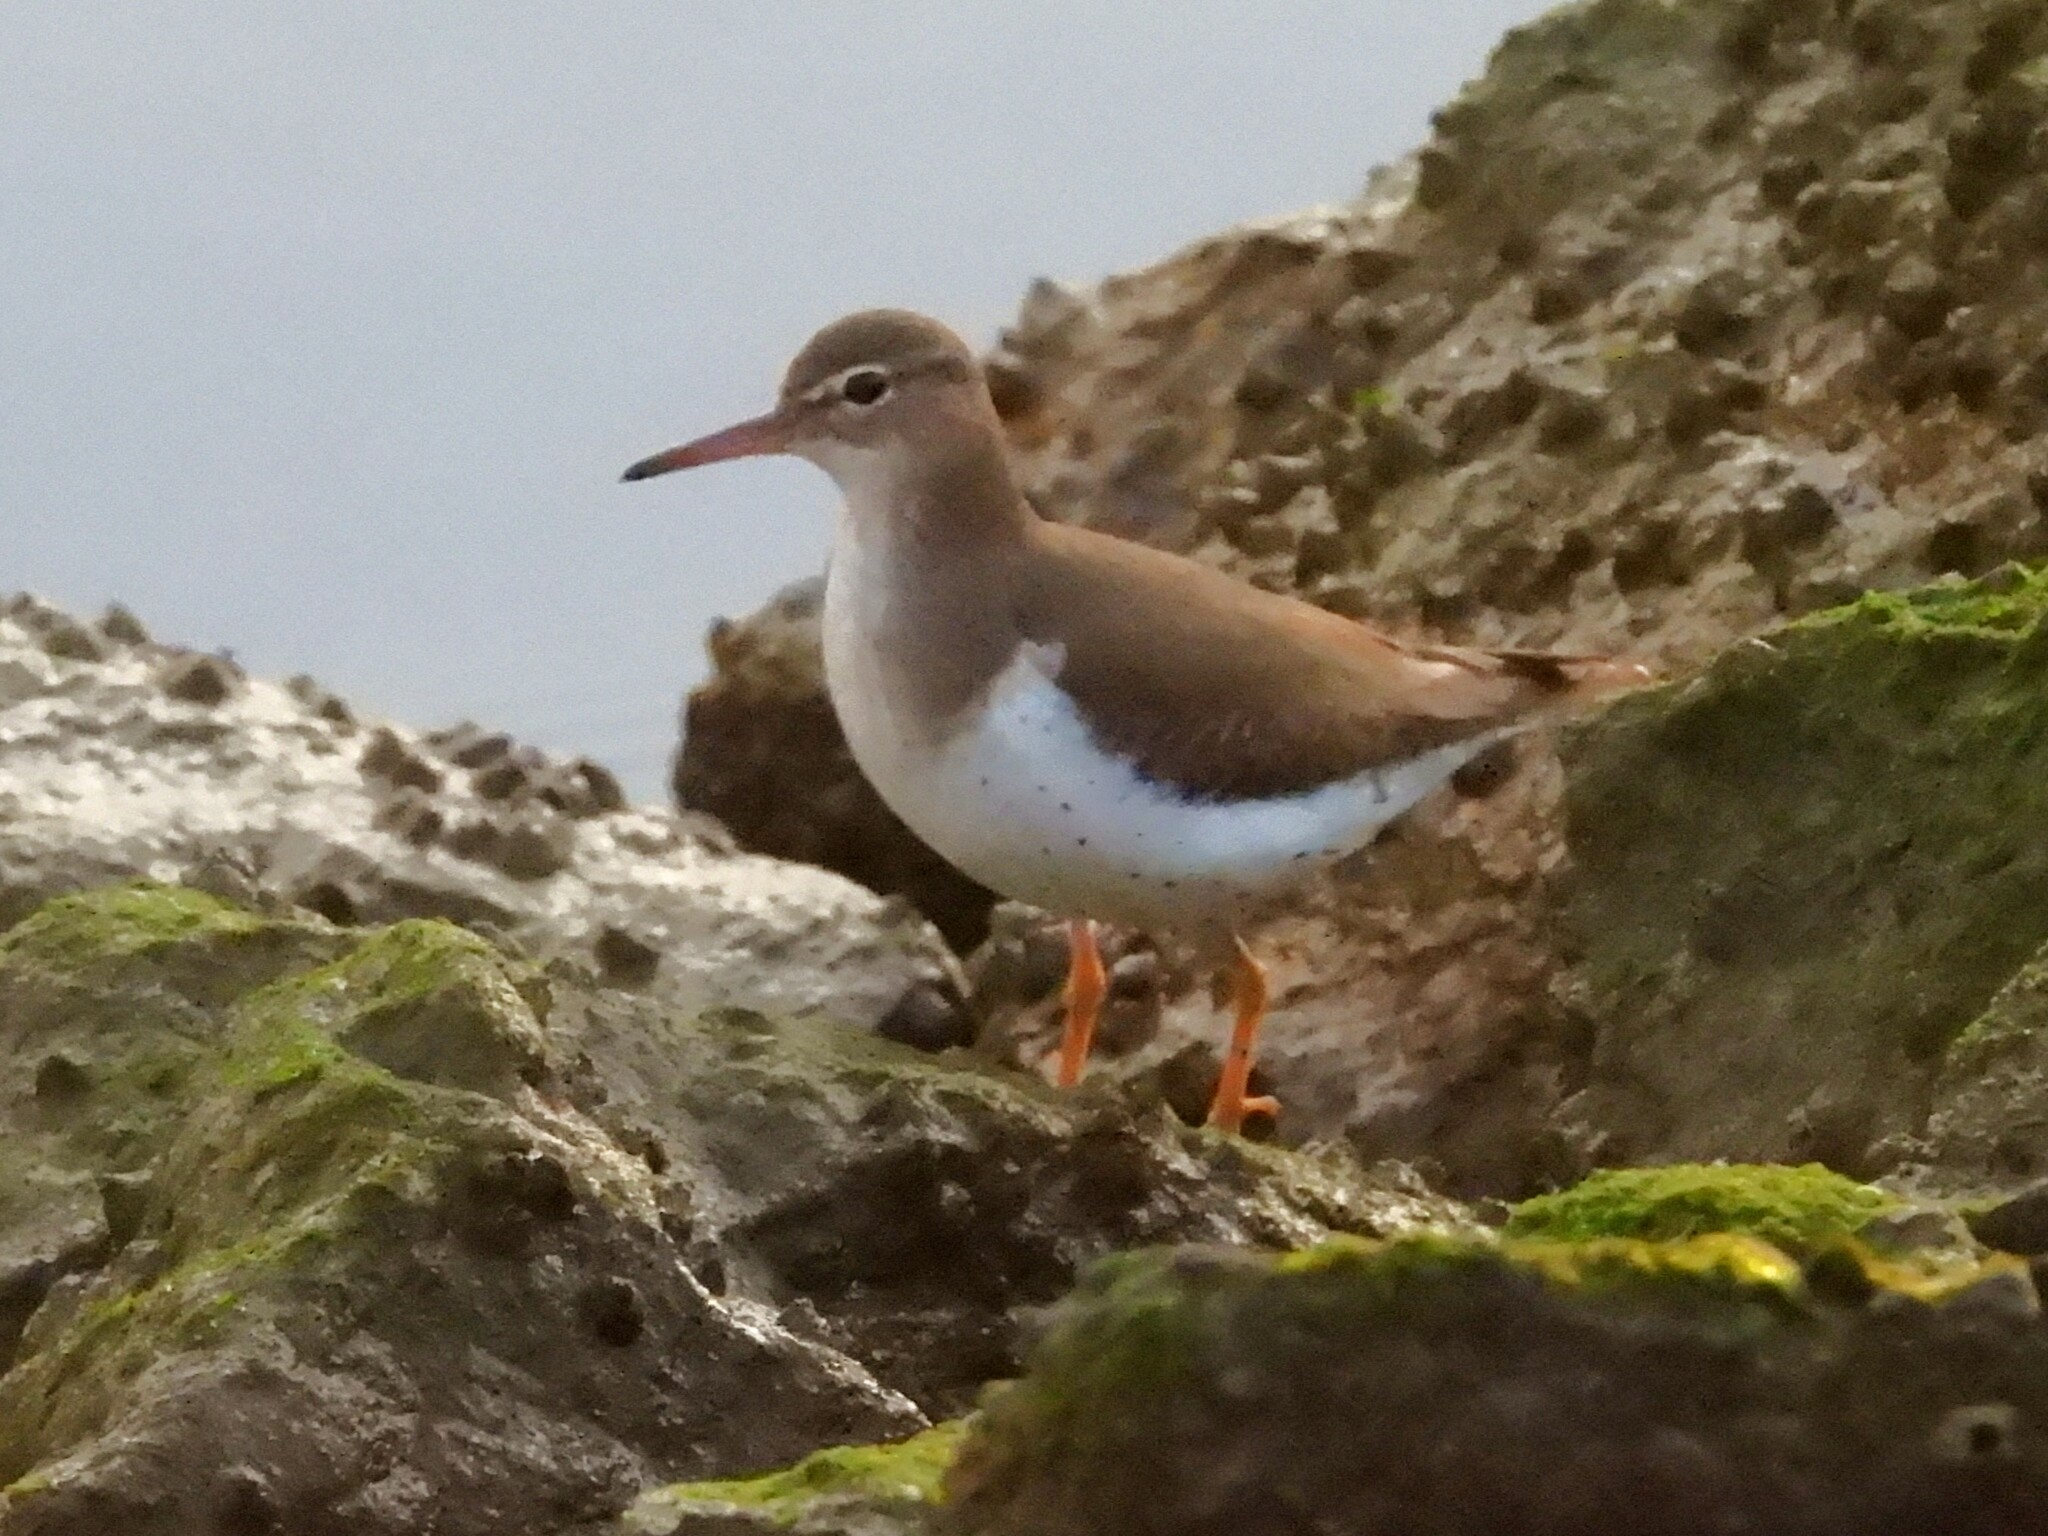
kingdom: Animalia
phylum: Chordata
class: Aves
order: Charadriiformes
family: Scolopacidae
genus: Actitis
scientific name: Actitis macularius
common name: Spotted sandpiper
